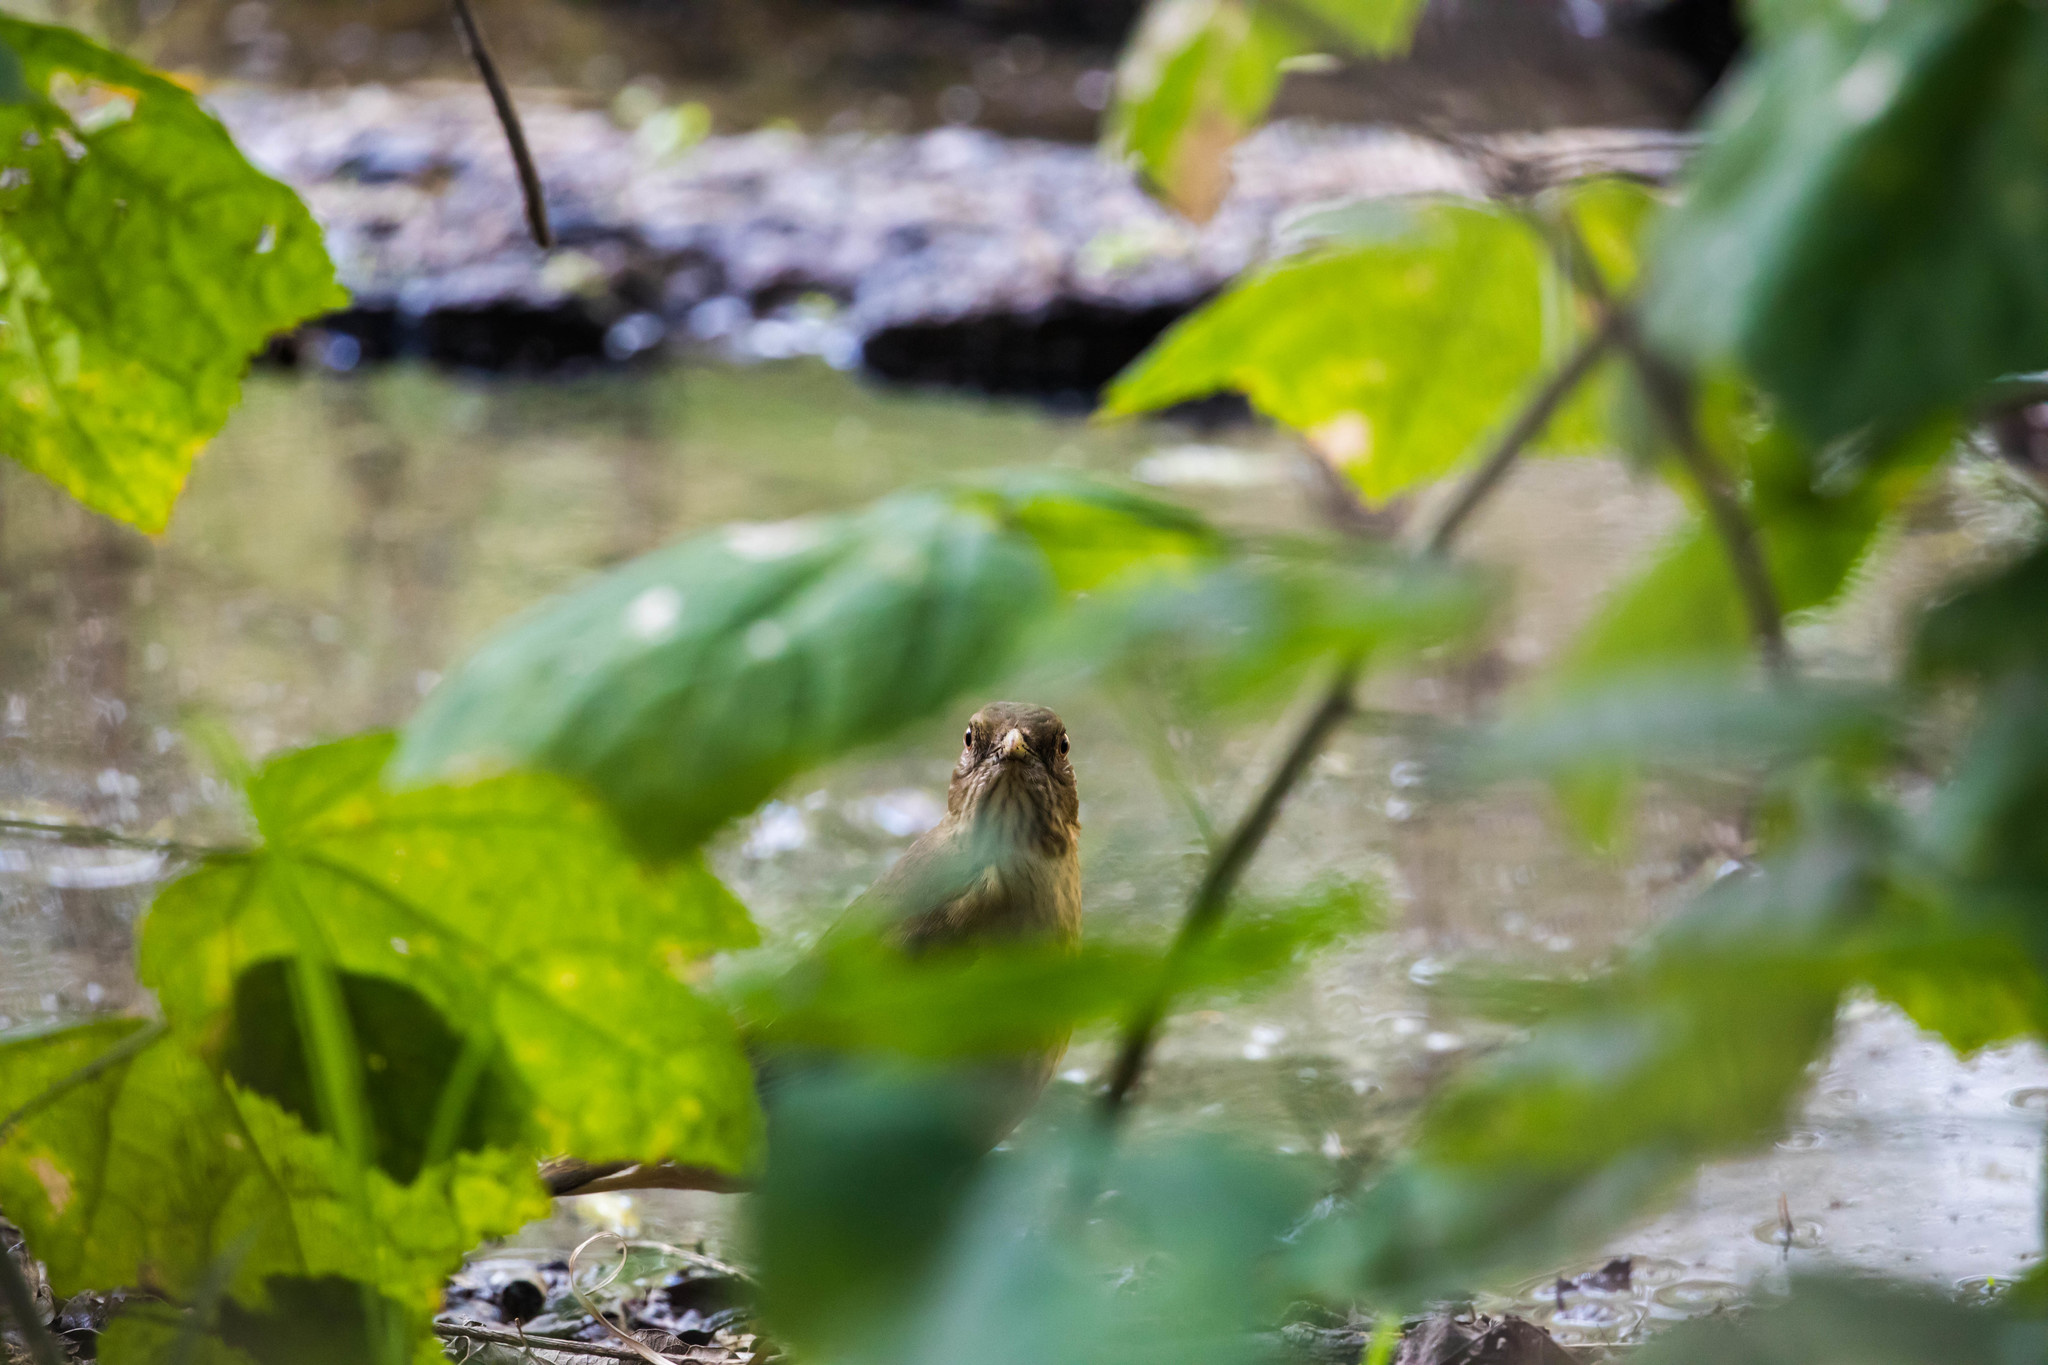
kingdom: Animalia
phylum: Chordata
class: Aves
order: Passeriformes
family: Turdidae
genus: Turdus
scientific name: Turdus grayi
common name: Clay-colored thrush
